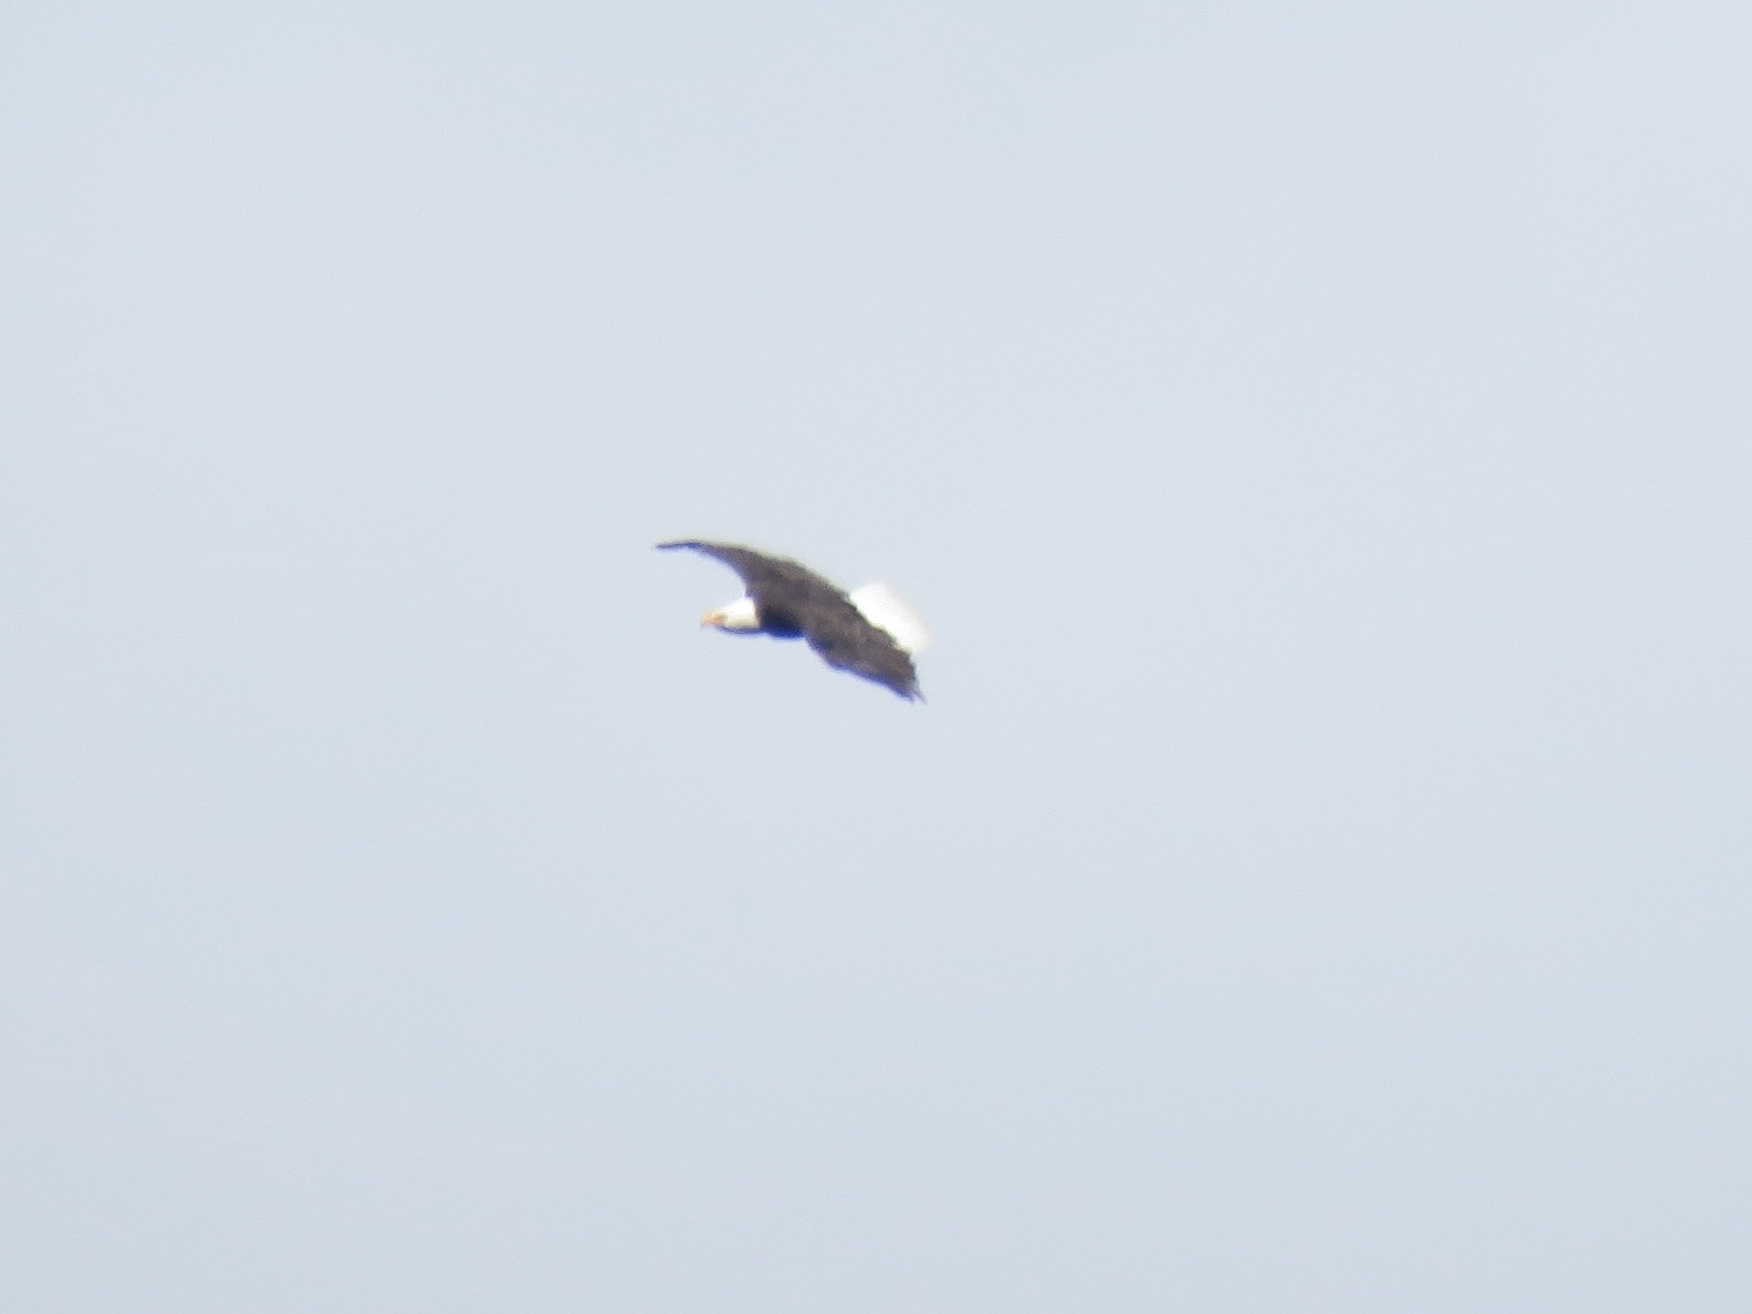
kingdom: Animalia
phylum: Chordata
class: Aves
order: Accipitriformes
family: Accipitridae
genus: Haliaeetus
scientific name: Haliaeetus leucocephalus
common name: Bald eagle
